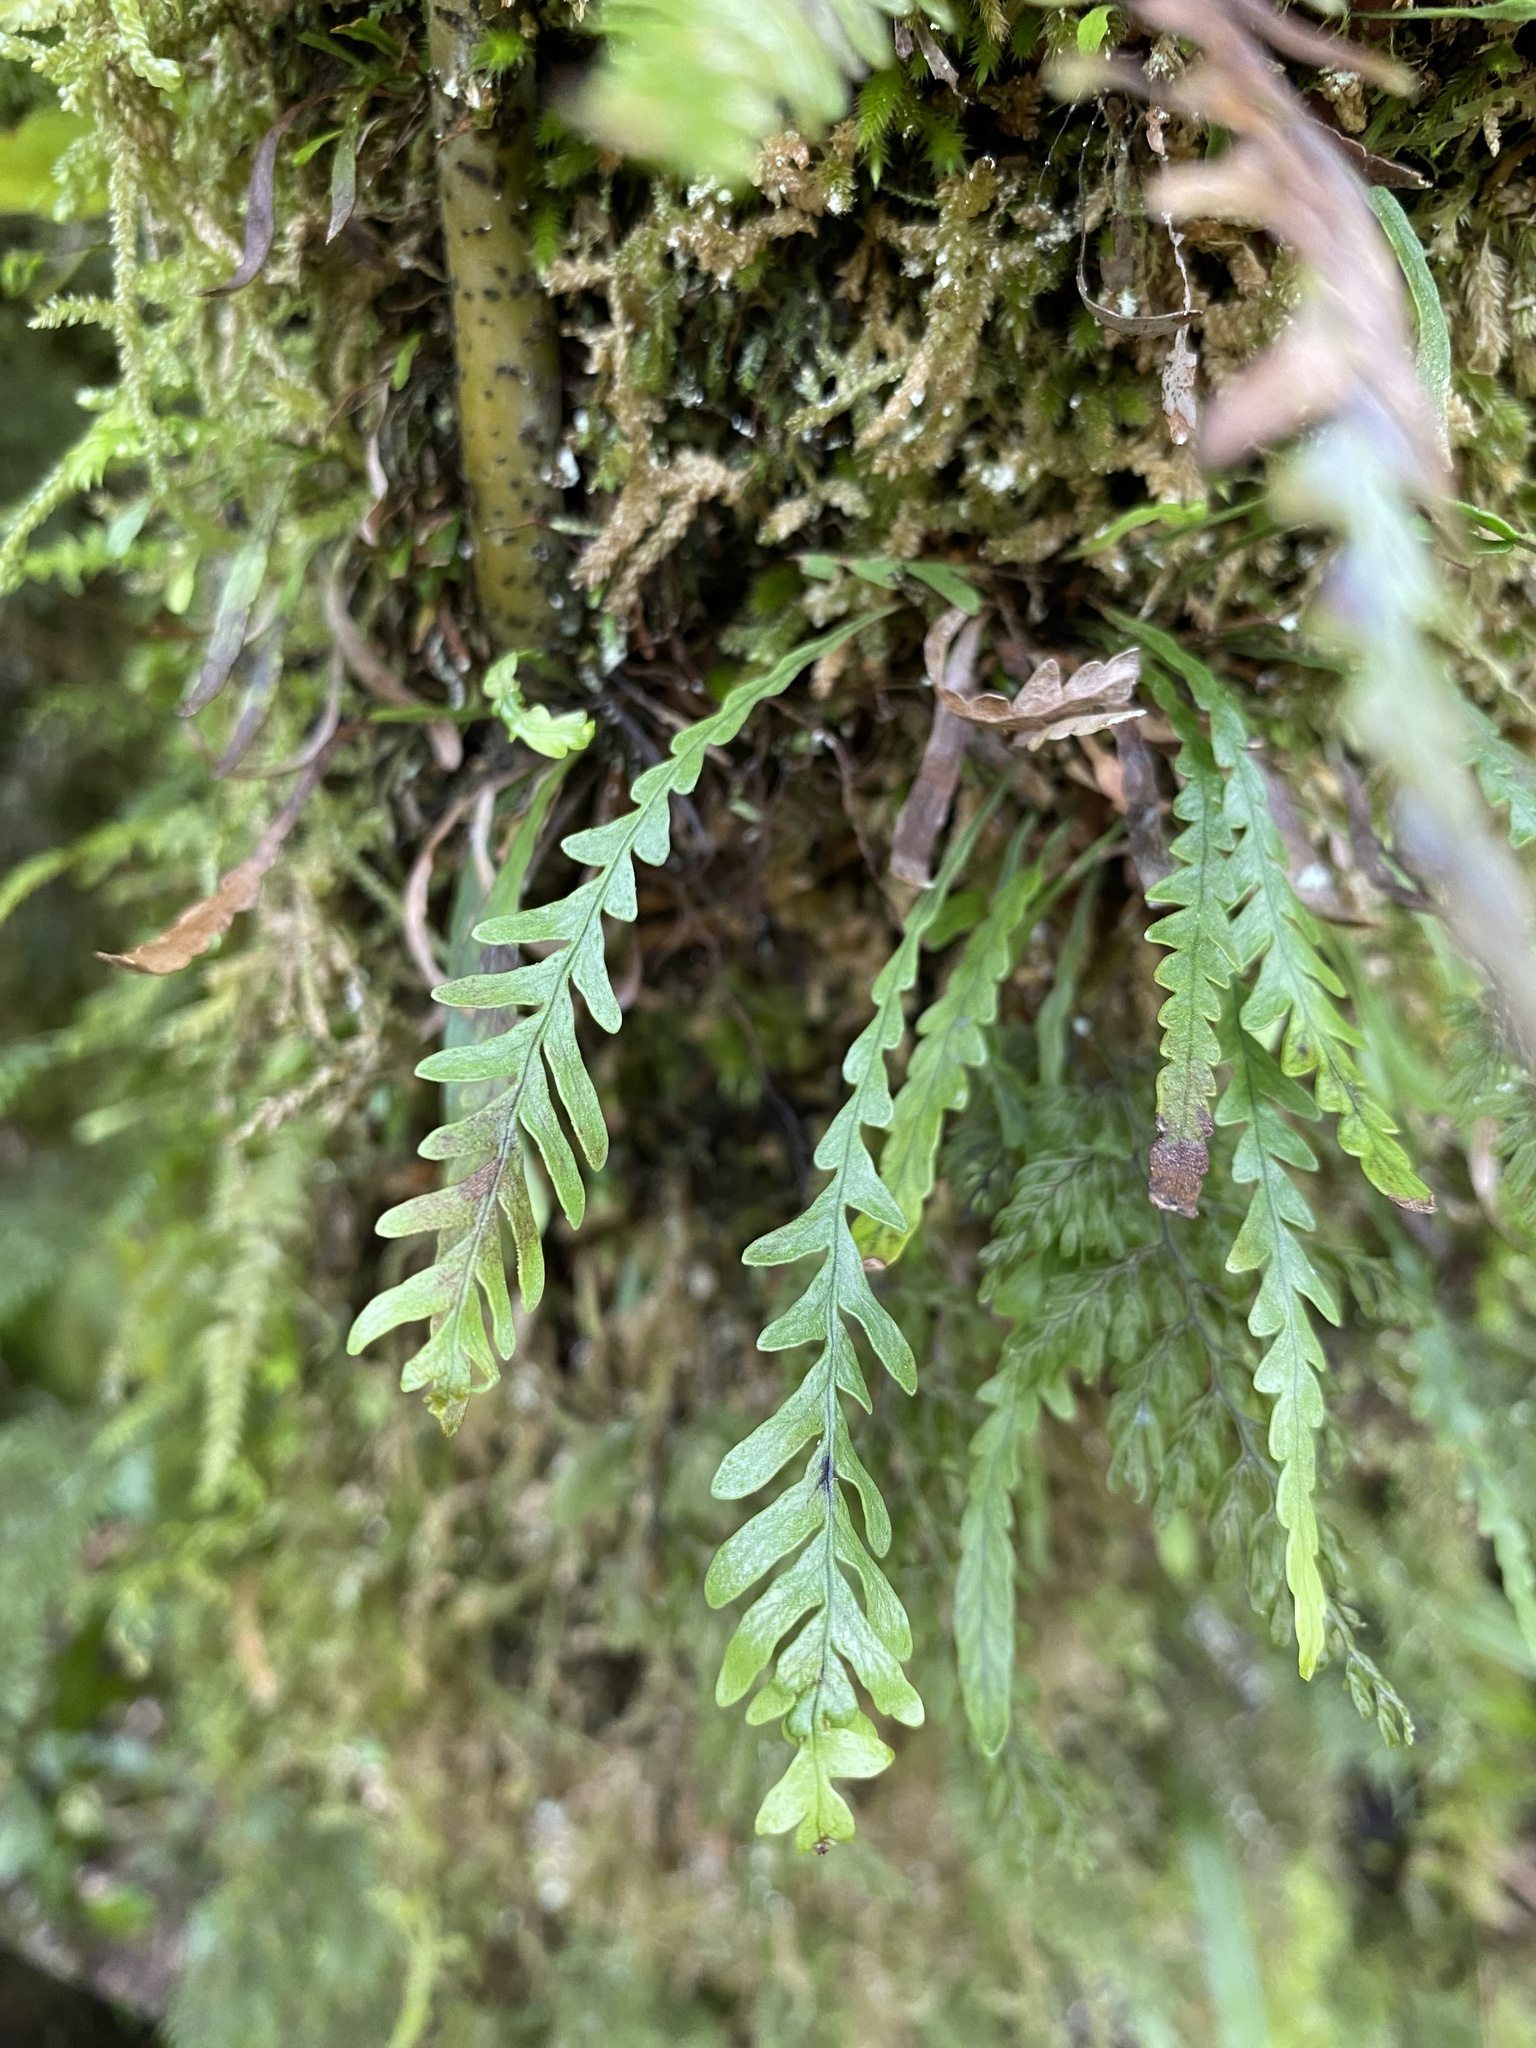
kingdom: Plantae
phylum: Tracheophyta
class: Polypodiopsida
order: Polypodiales
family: Polypodiaceae
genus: Notogrammitis
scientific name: Notogrammitis heterophylla
